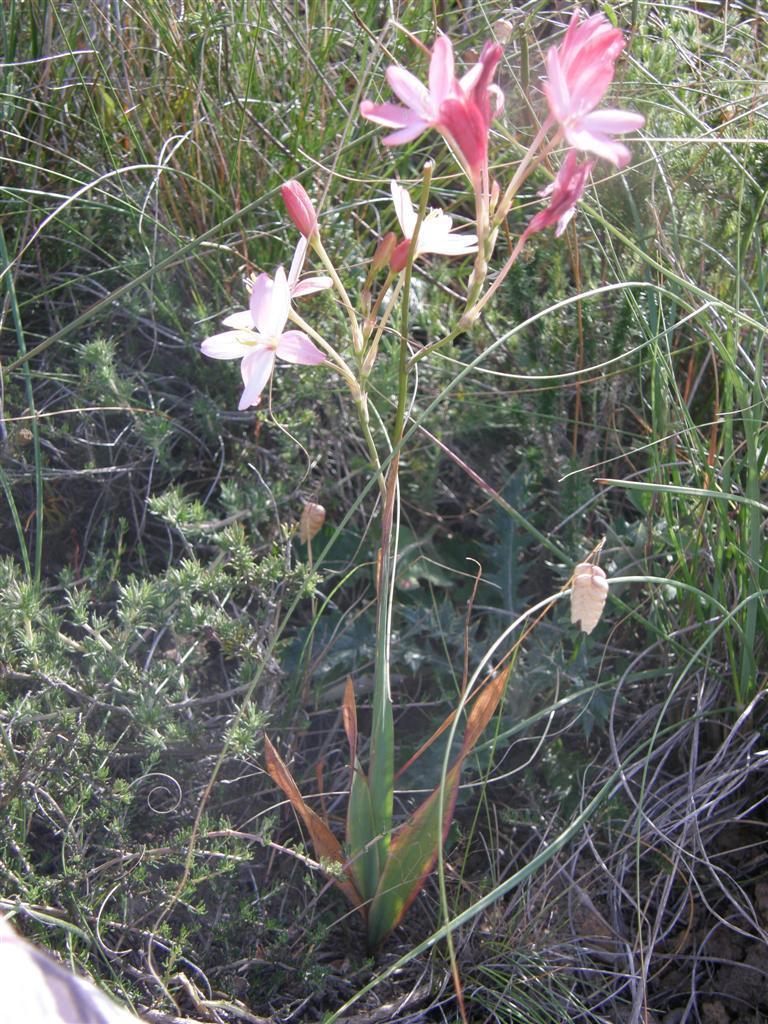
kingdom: Plantae
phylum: Tracheophyta
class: Liliopsida
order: Asparagales
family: Iridaceae
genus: Ixia
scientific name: Ixia longituba
